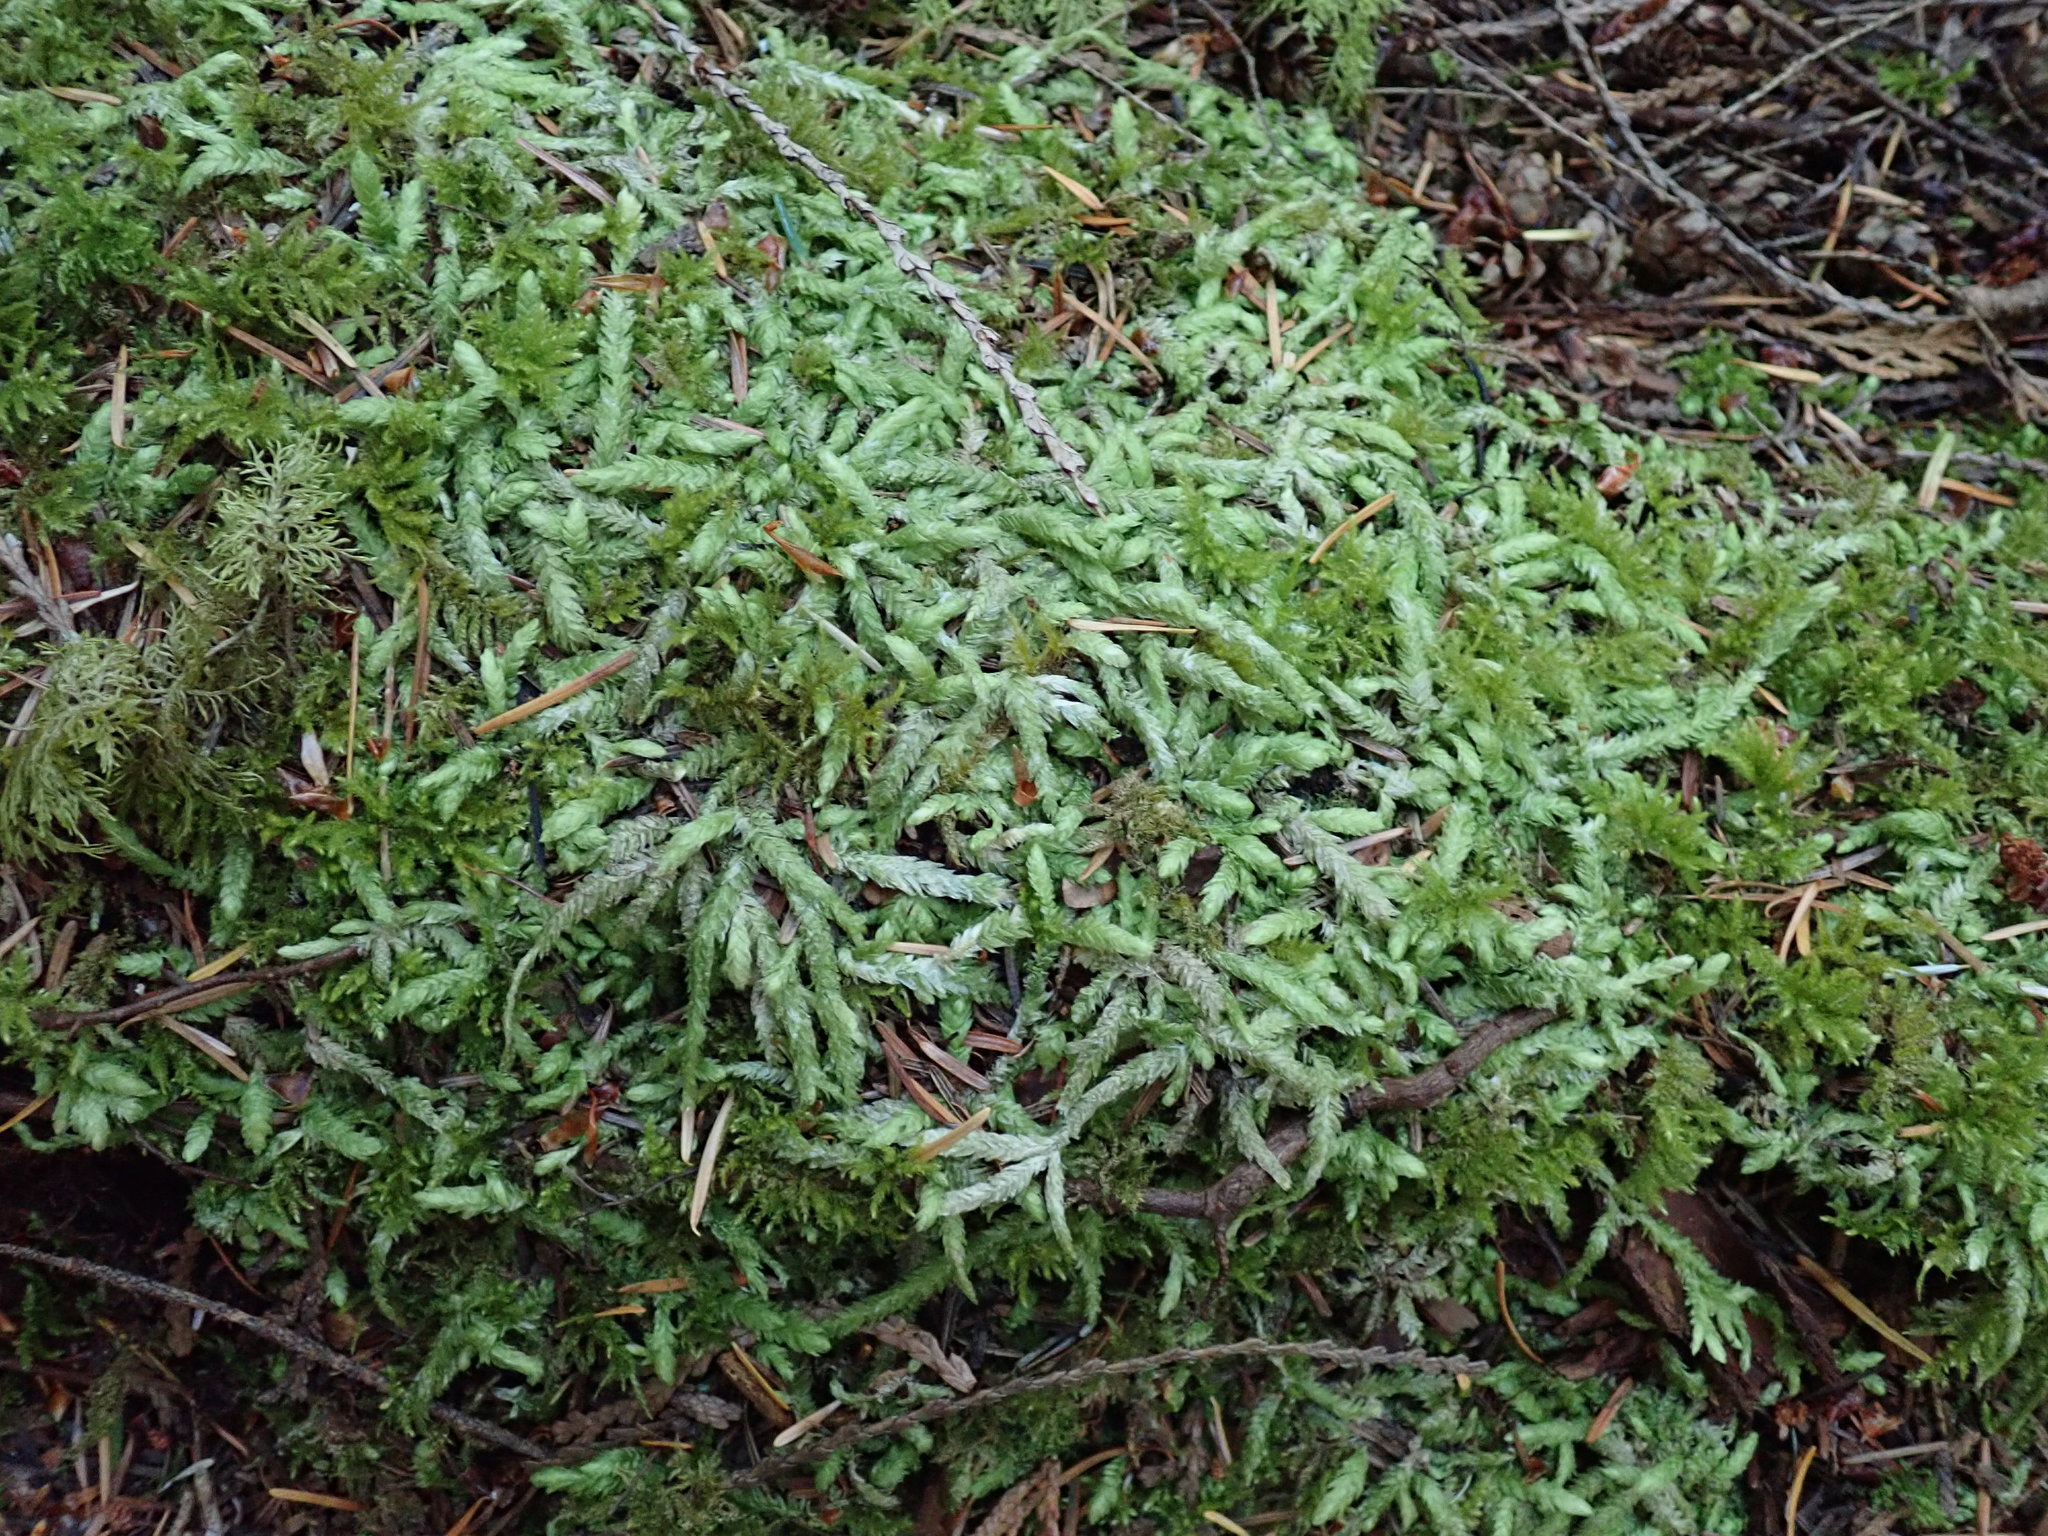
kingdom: Plantae
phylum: Bryophyta
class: Bryopsida
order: Hypnales
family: Plagiotheciaceae
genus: Plagiothecium
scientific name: Plagiothecium undulatum
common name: Waved silk-moss
